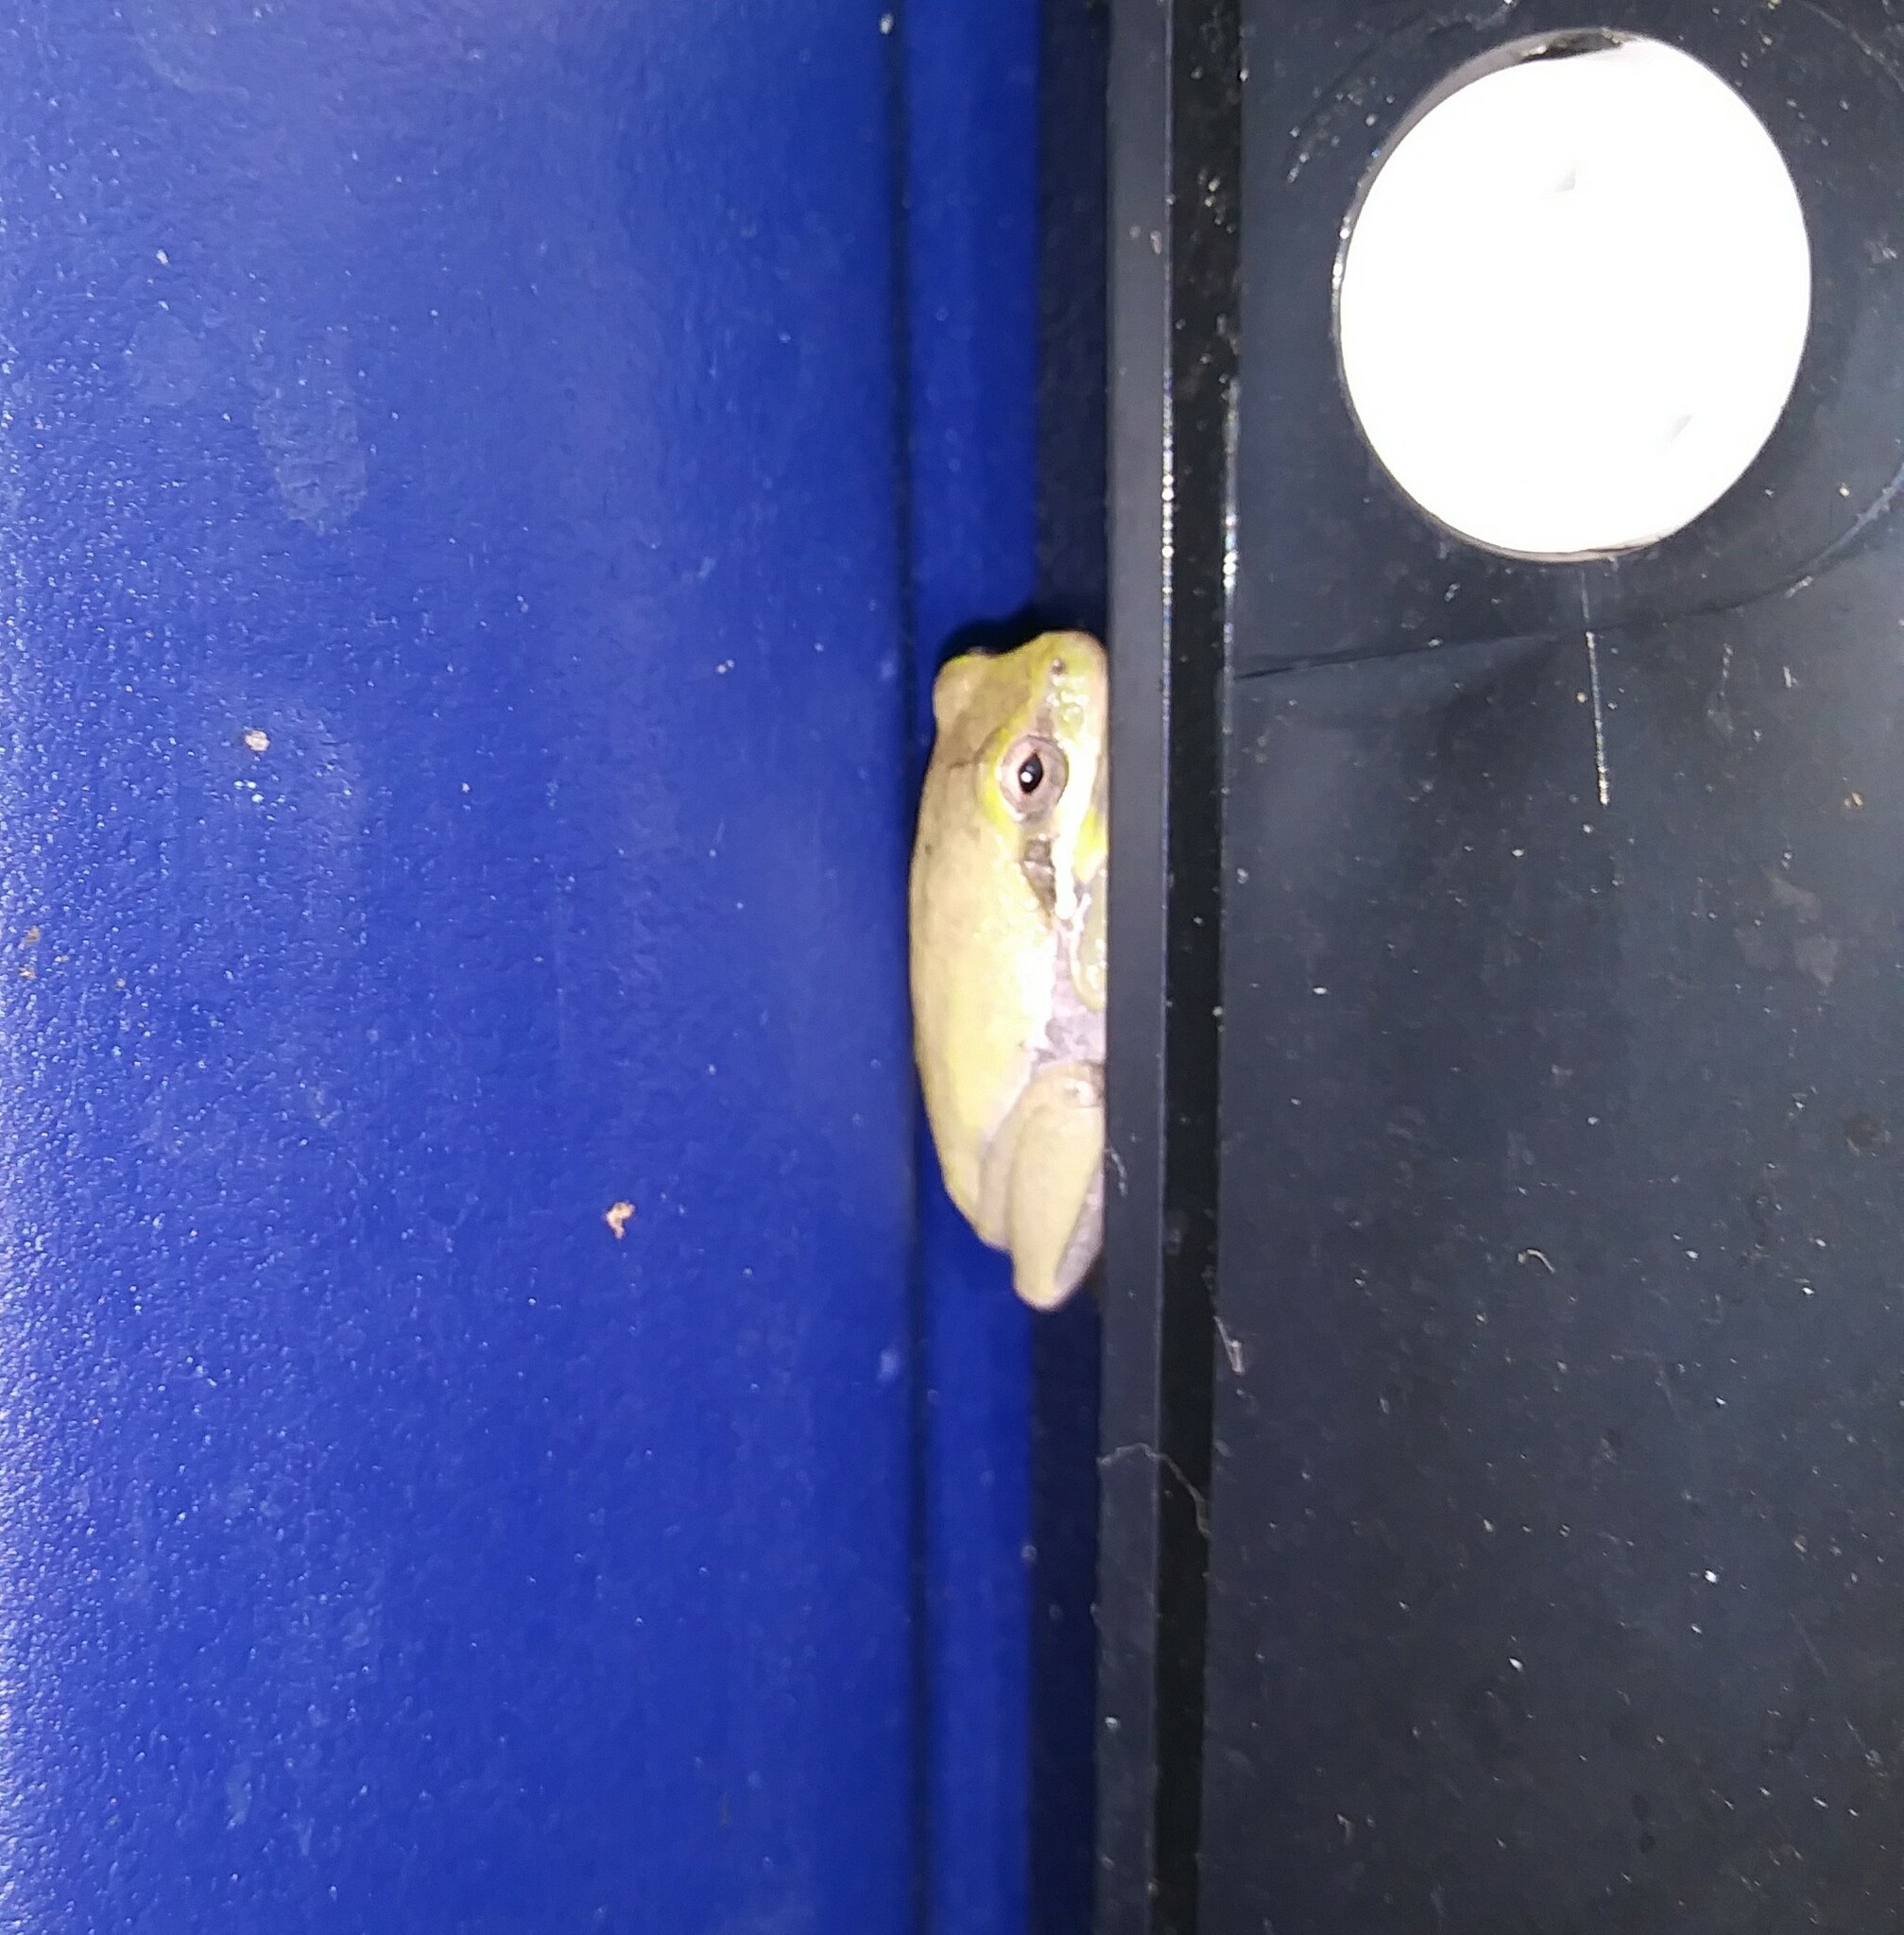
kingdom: Animalia
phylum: Chordata
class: Amphibia
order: Anura
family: Hylidae
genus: Hyla
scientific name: Hyla femoralis
